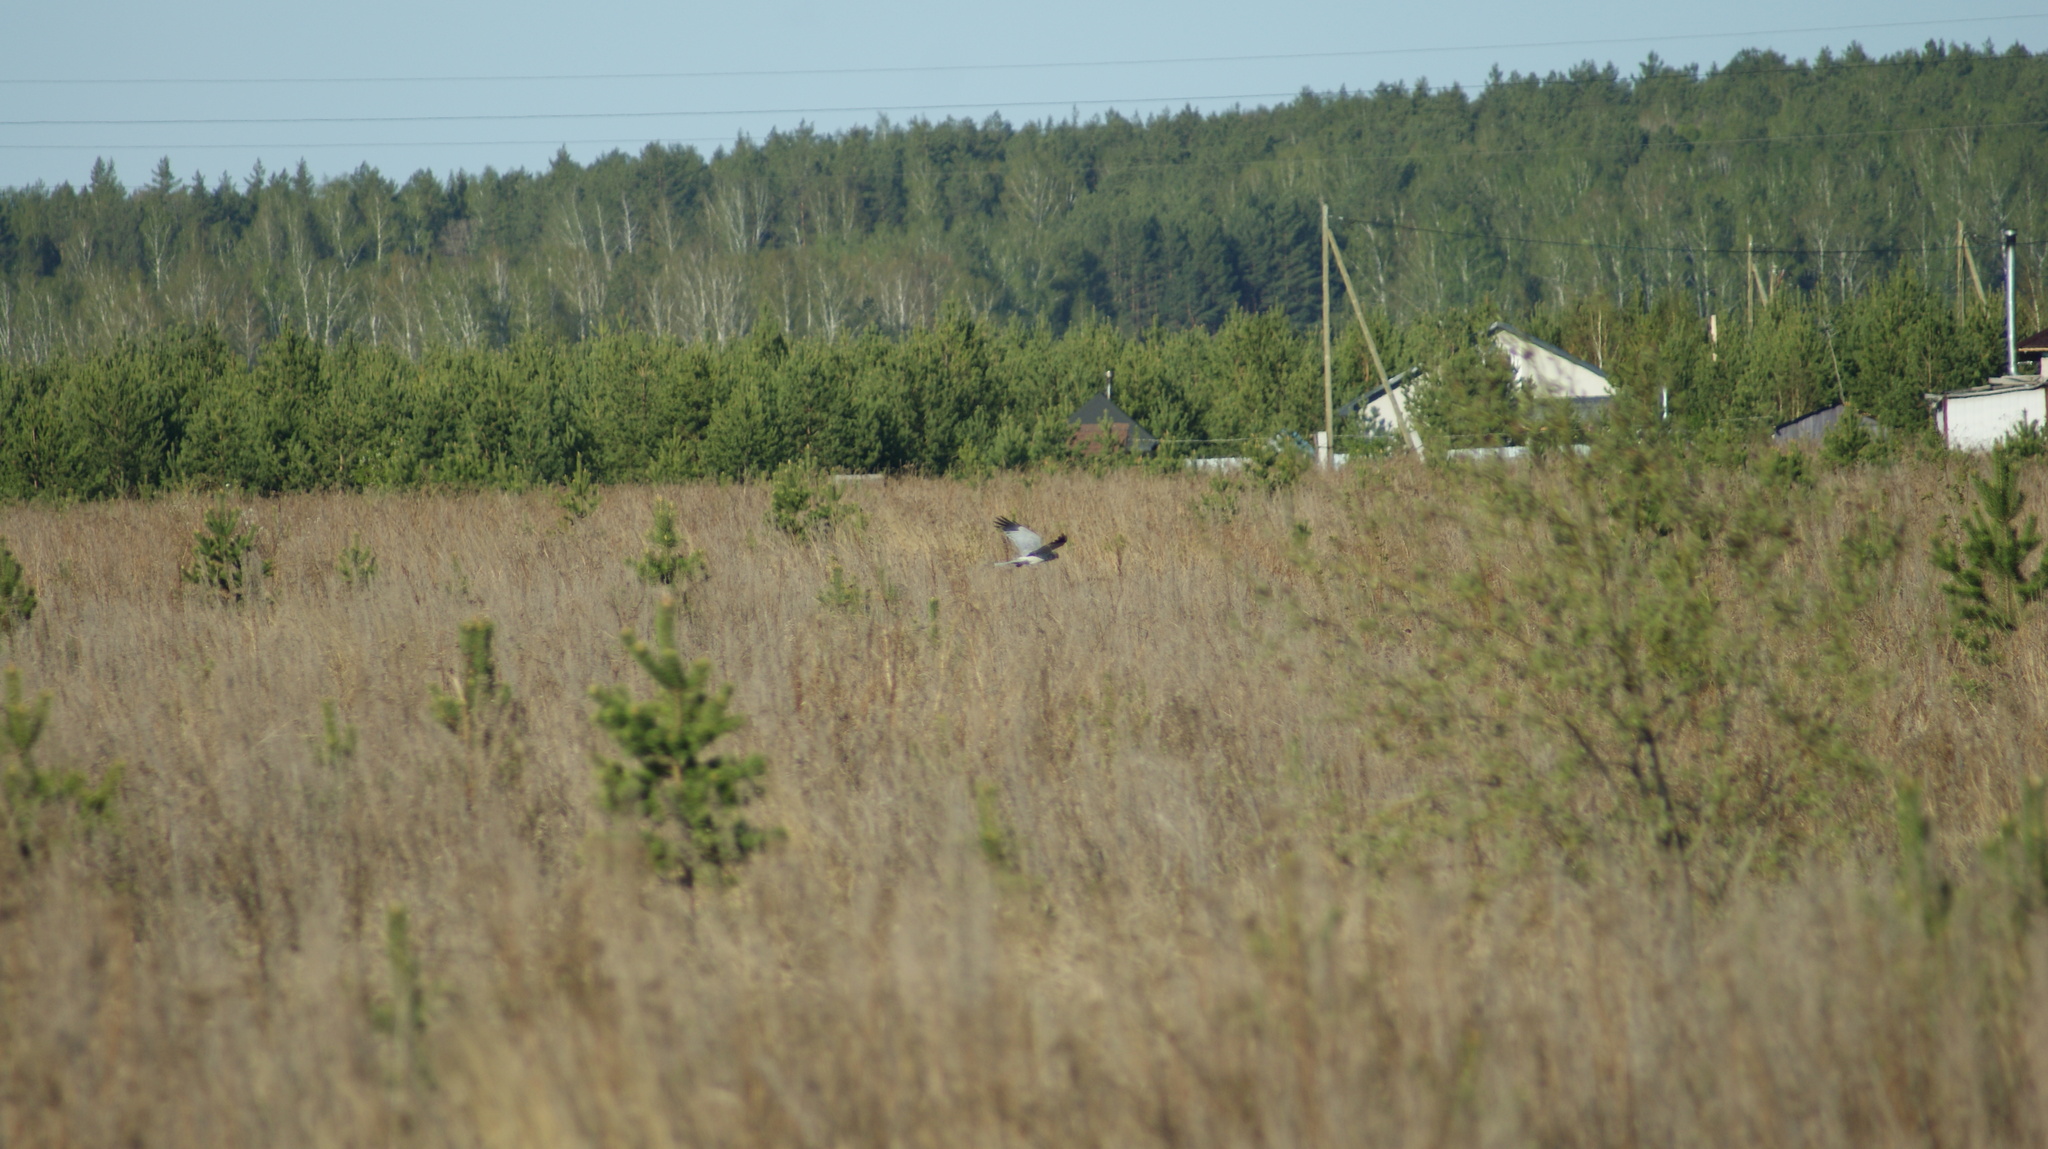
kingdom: Animalia
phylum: Chordata
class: Aves
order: Accipitriformes
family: Accipitridae
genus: Circus
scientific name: Circus cyaneus
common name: Hen harrier
